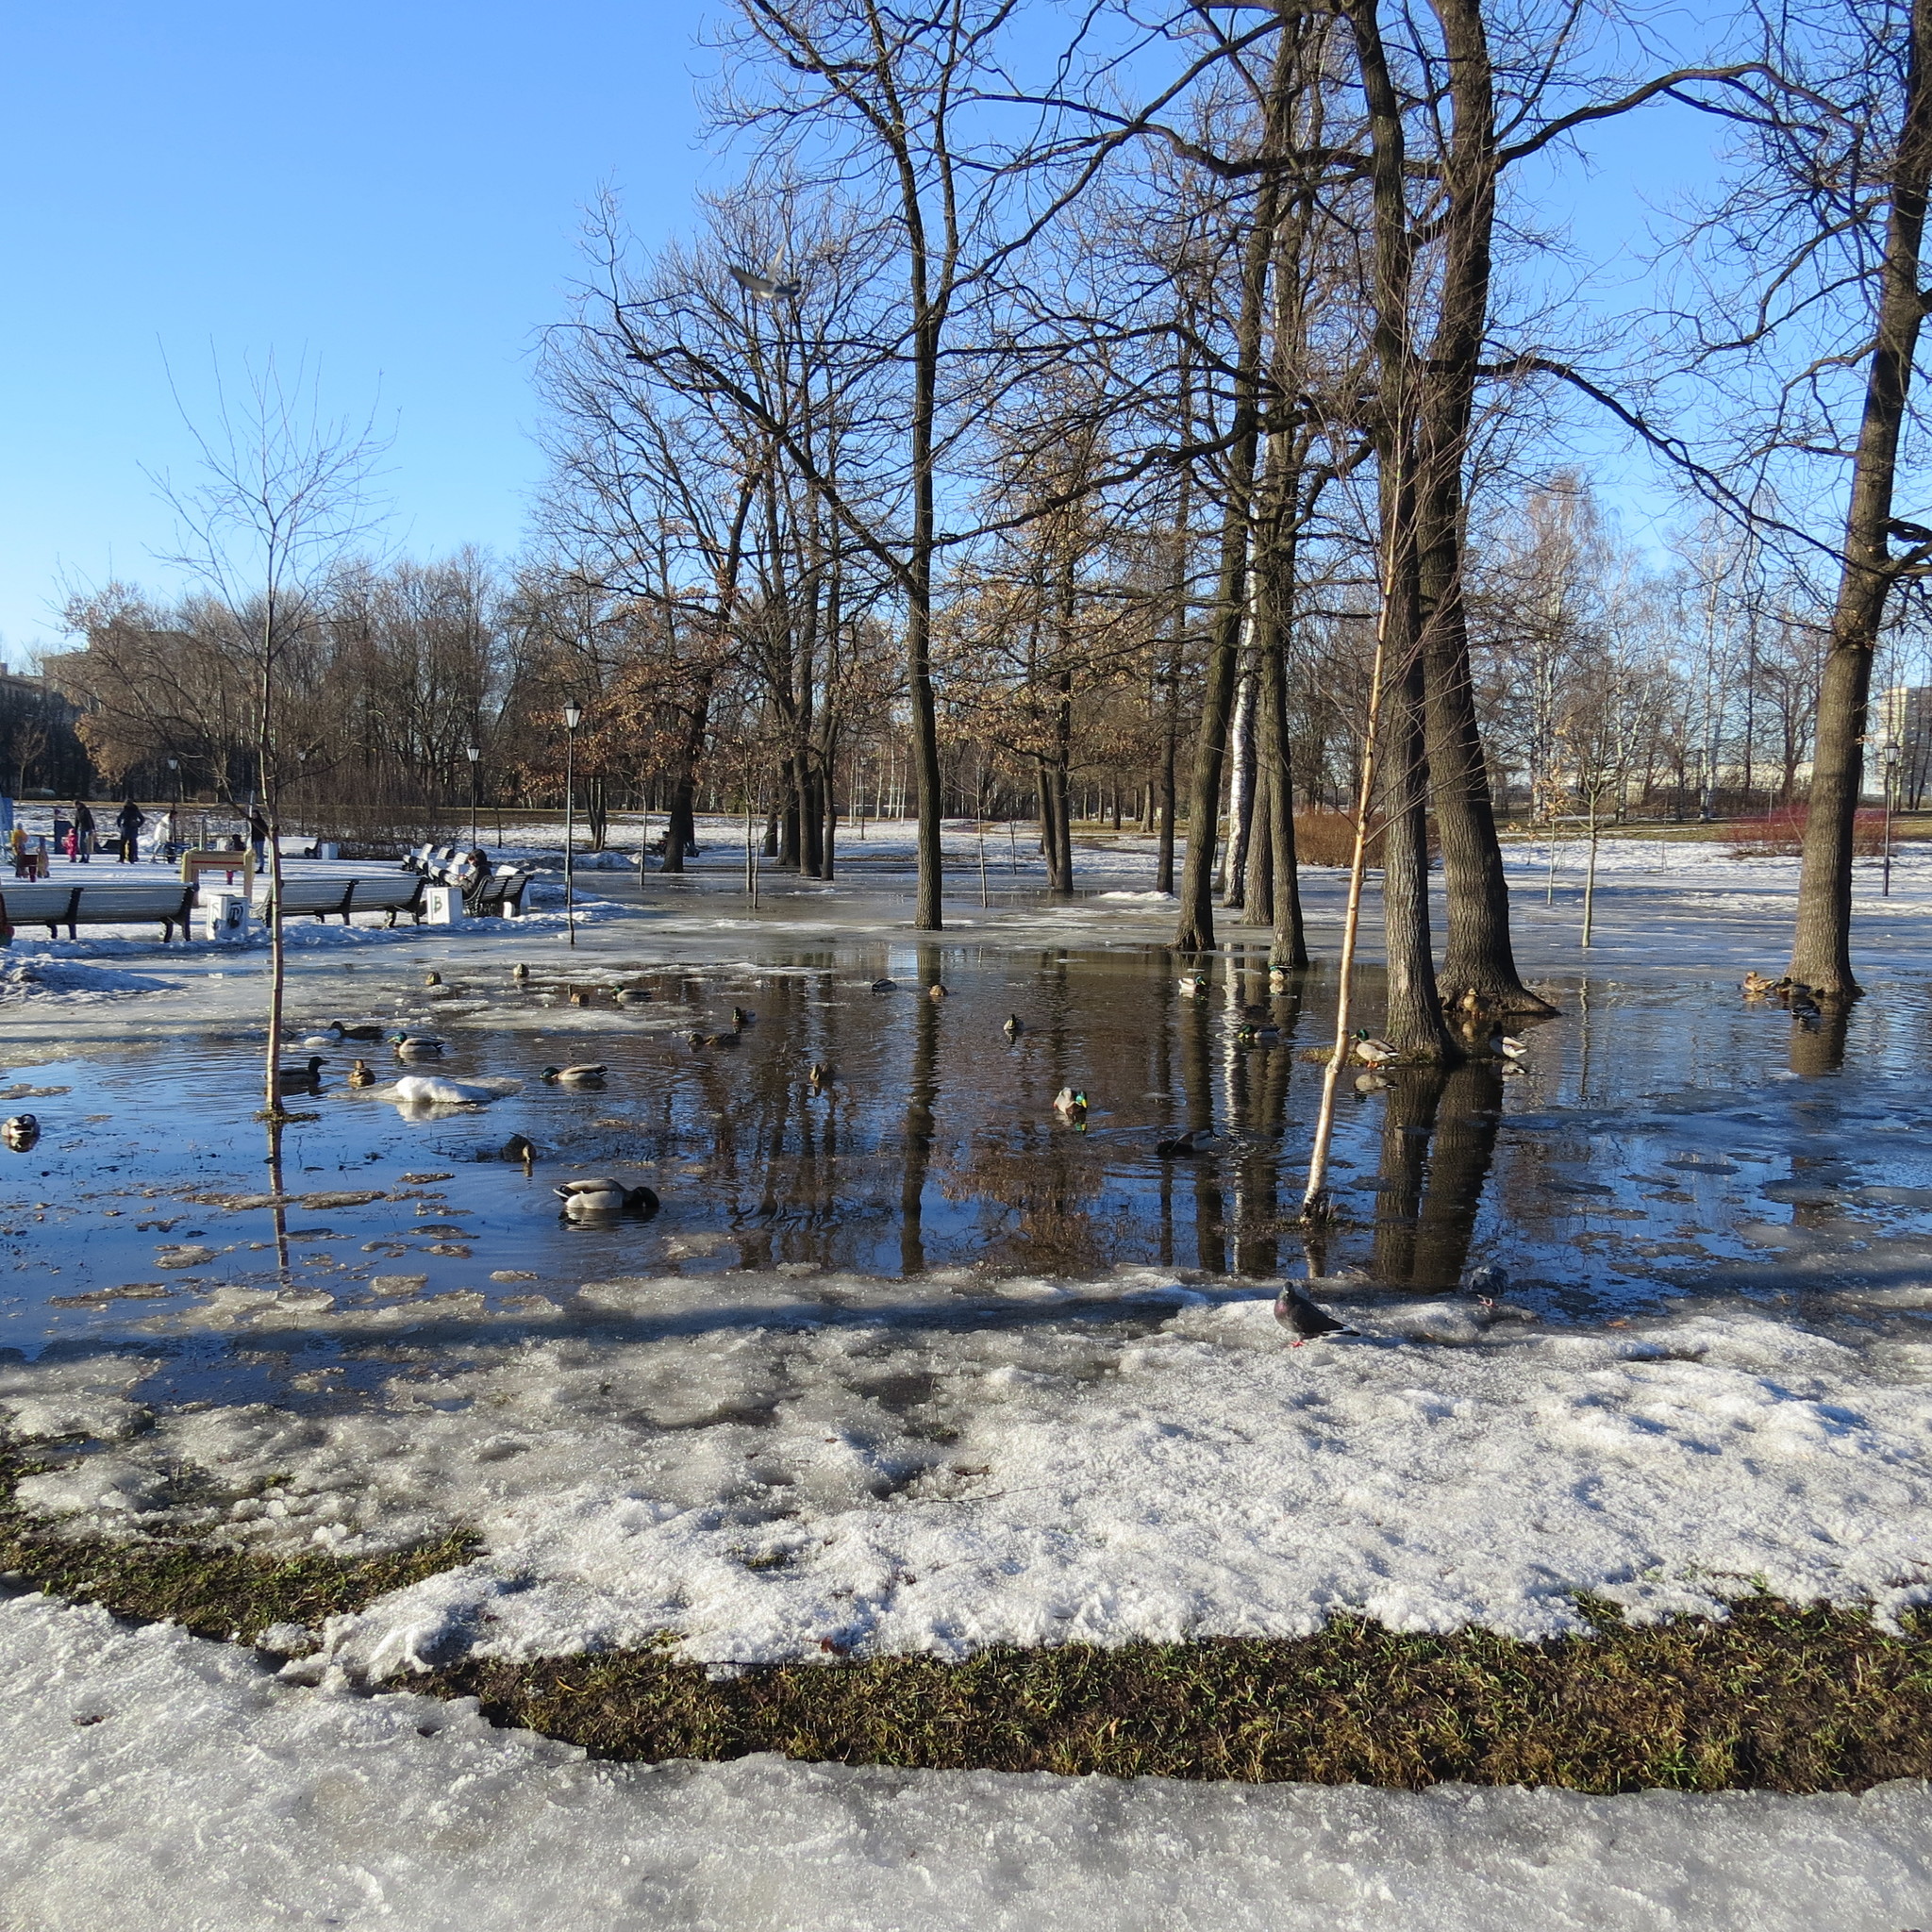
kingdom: Animalia
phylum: Chordata
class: Aves
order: Anseriformes
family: Anatidae
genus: Anas
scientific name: Anas platyrhynchos
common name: Mallard
